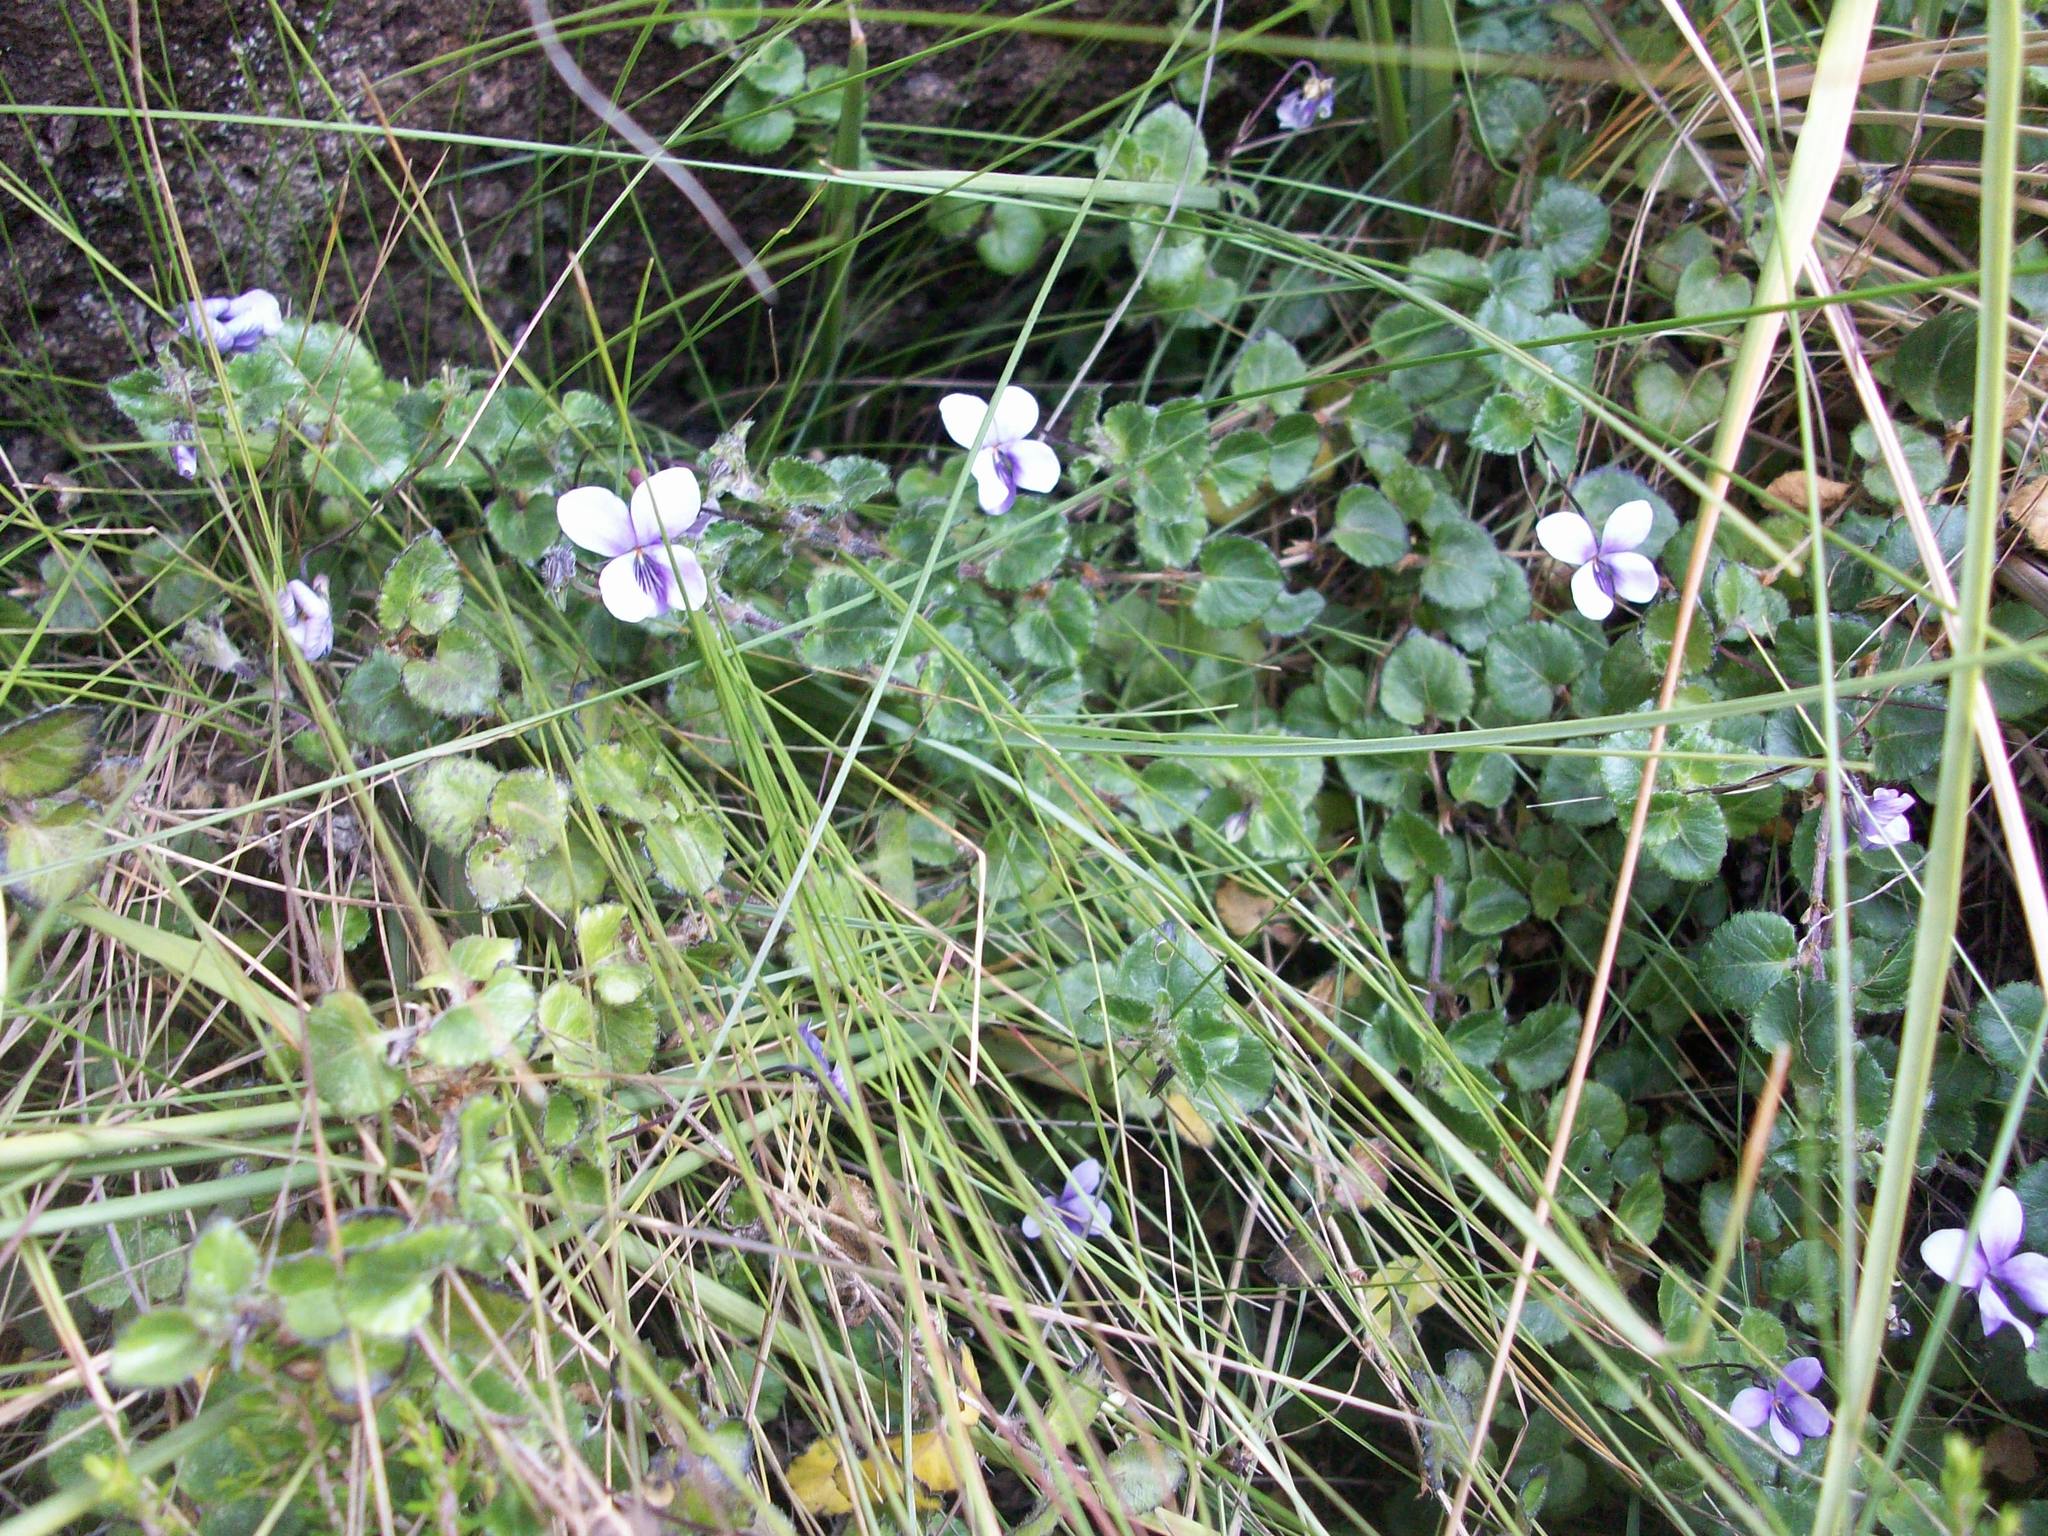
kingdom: Plantae
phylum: Tracheophyta
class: Magnoliopsida
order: Malpighiales
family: Violaceae
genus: Viola
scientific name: Viola eminii
